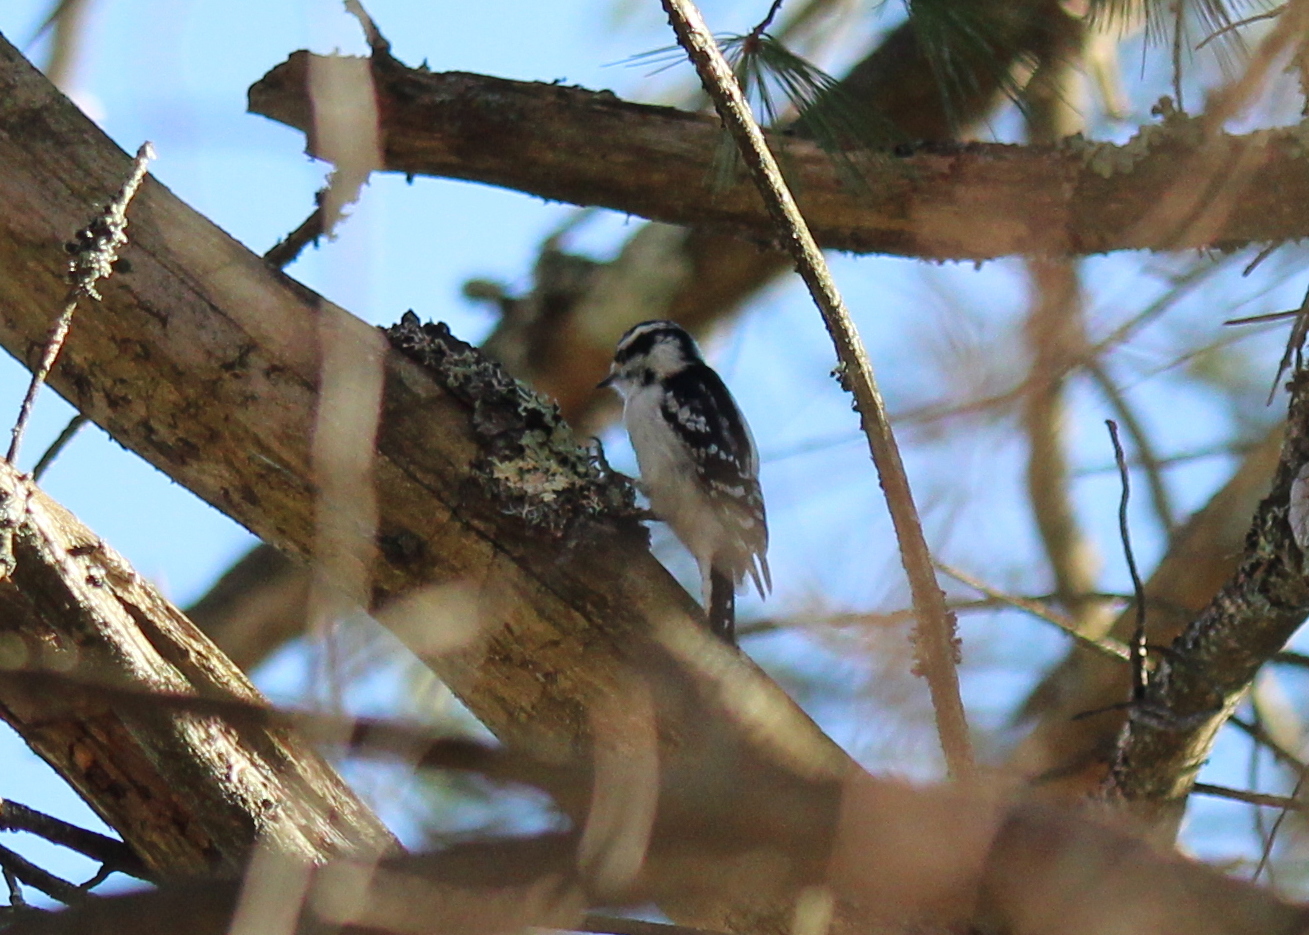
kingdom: Animalia
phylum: Chordata
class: Aves
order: Piciformes
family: Picidae
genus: Dryobates
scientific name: Dryobates pubescens
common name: Downy woodpecker
